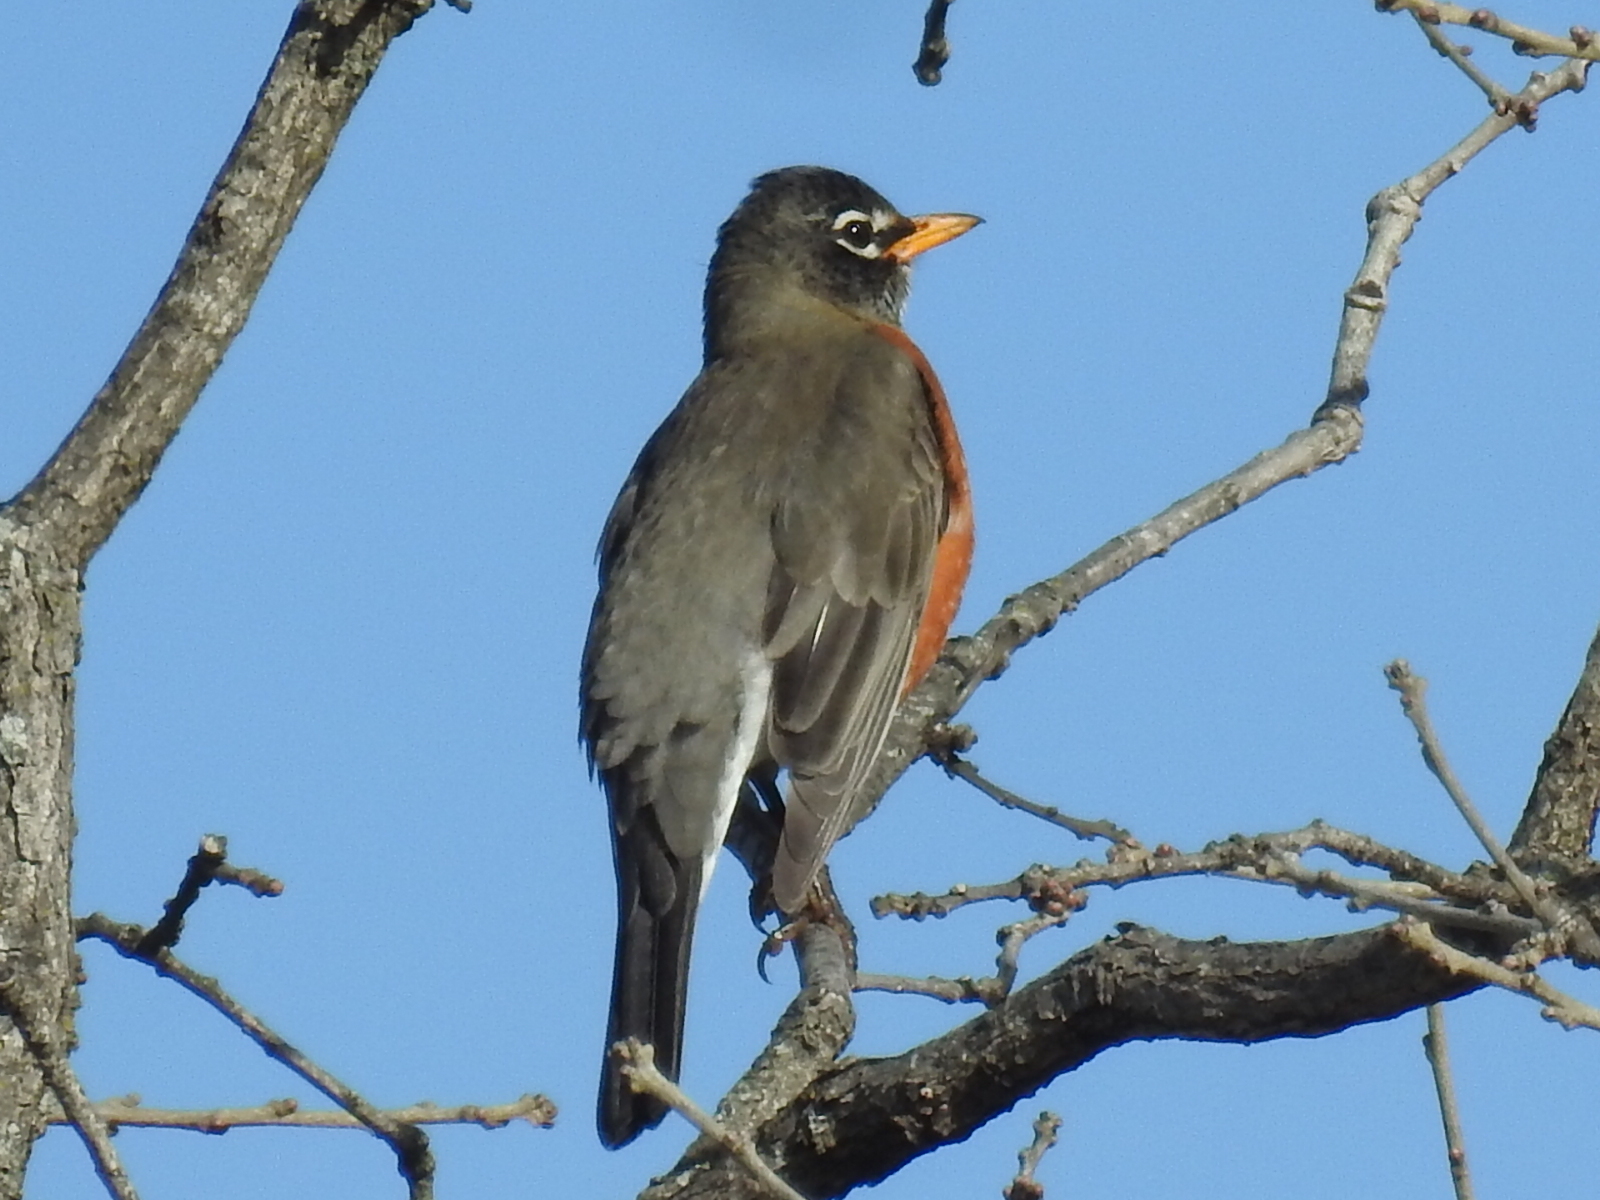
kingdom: Animalia
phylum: Chordata
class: Aves
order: Passeriformes
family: Turdidae
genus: Turdus
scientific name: Turdus migratorius
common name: American robin
